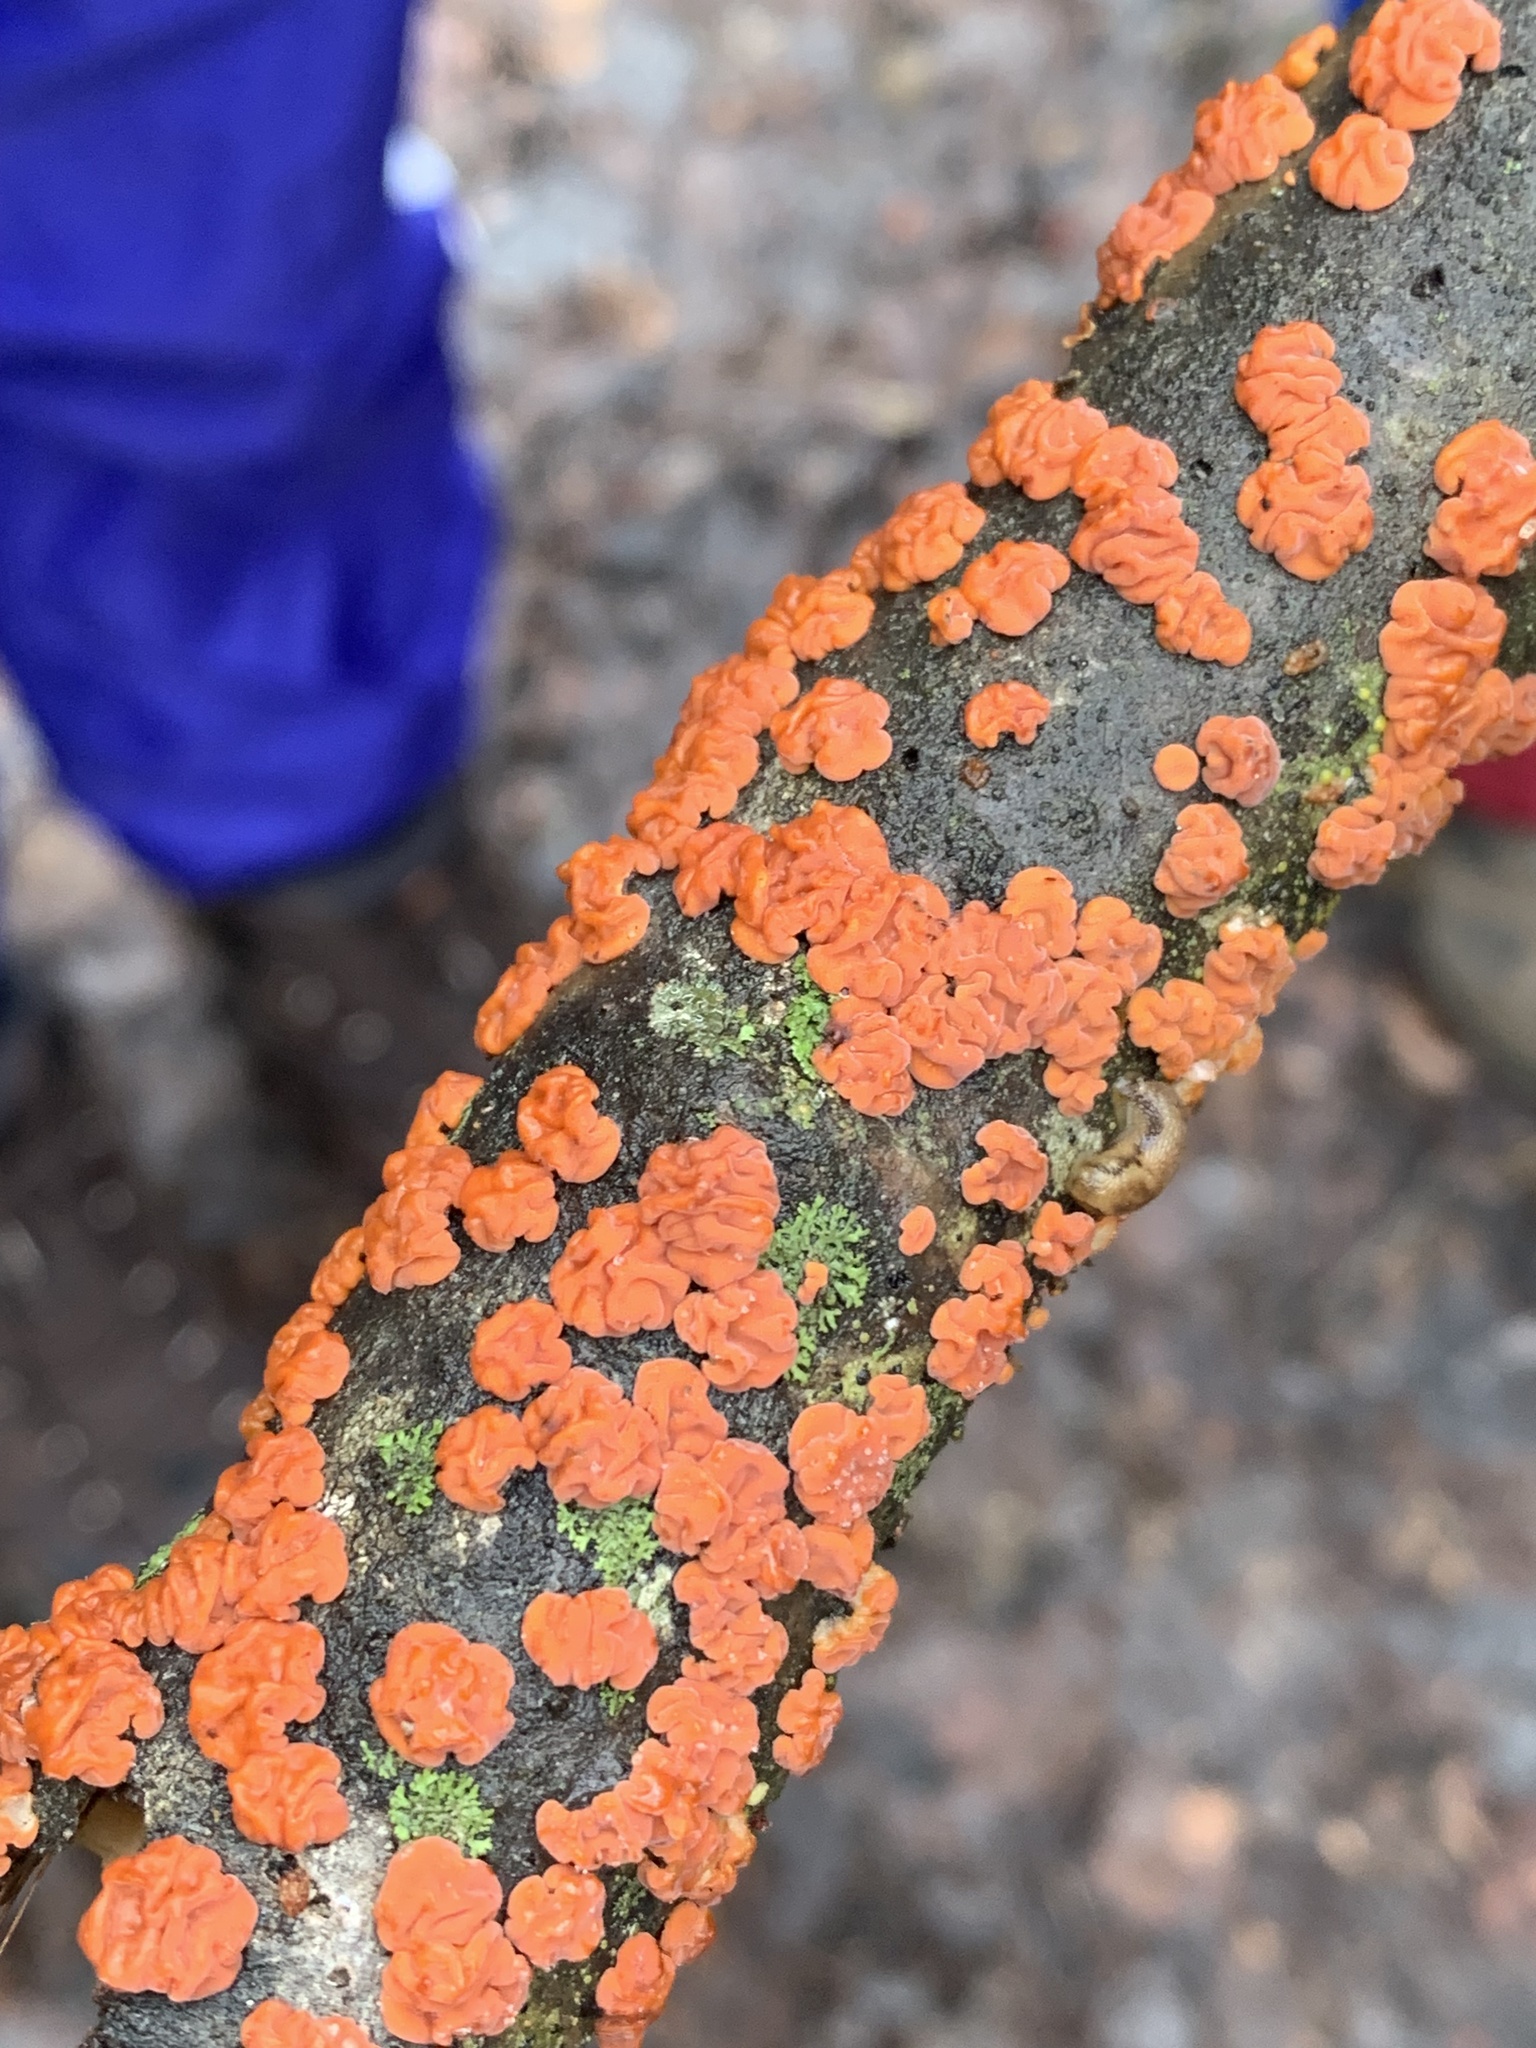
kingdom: Fungi
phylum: Basidiomycota
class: Agaricomycetes
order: Russulales
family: Peniophoraceae
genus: Peniophora
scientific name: Peniophora rufa
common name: Red tree brain fungus
